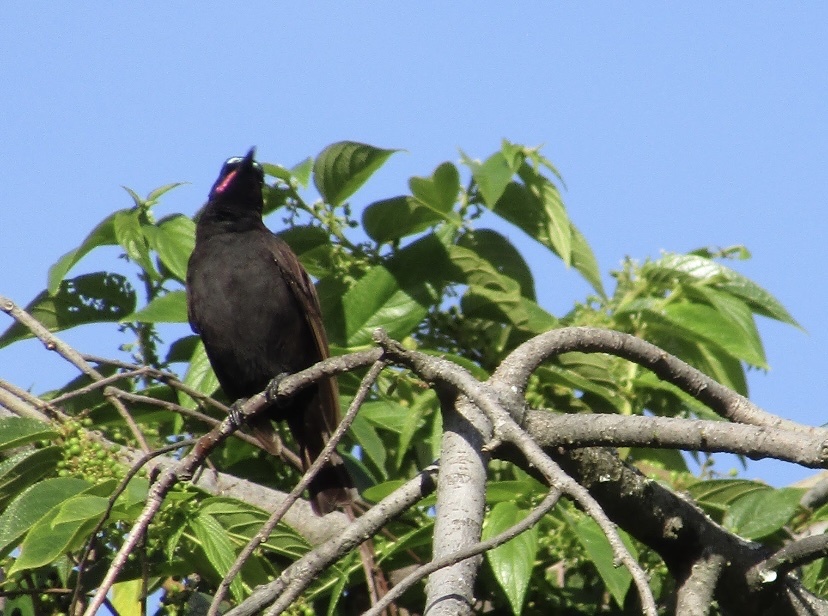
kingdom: Animalia
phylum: Chordata
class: Aves
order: Passeriformes
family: Nectariniidae
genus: Chalcomitra
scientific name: Chalcomitra amethystina
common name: Amethyst sunbird
